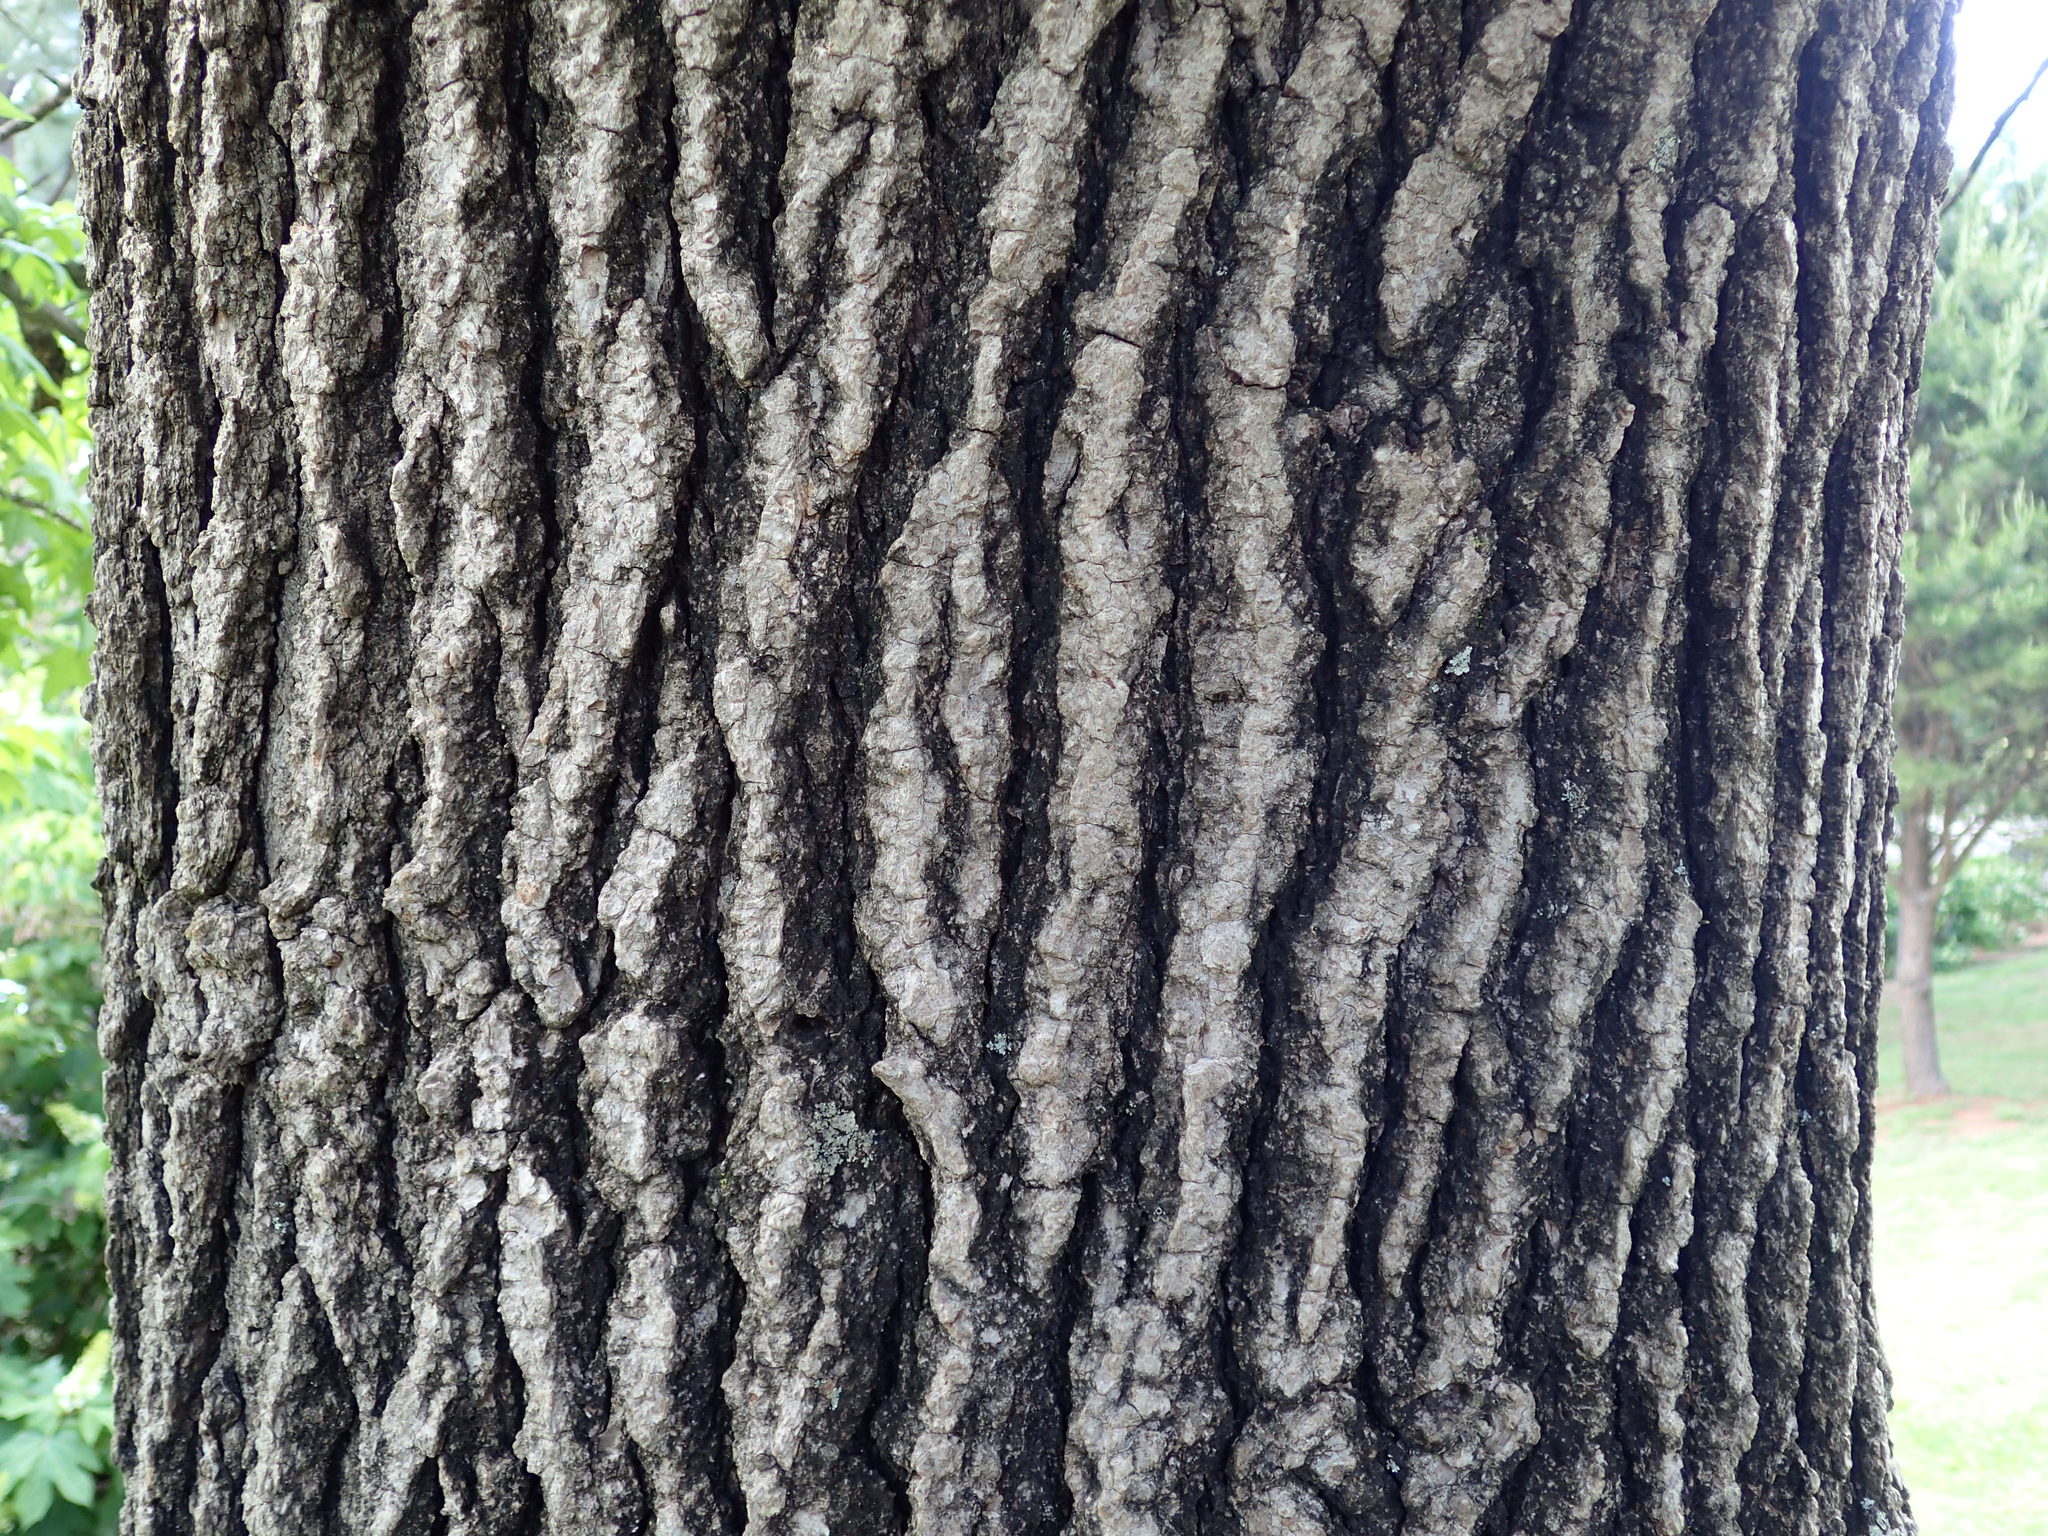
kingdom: Plantae
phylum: Tracheophyta
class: Magnoliopsida
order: Saxifragales
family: Altingiaceae
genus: Liquidambar
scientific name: Liquidambar styraciflua
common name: Sweet gum
